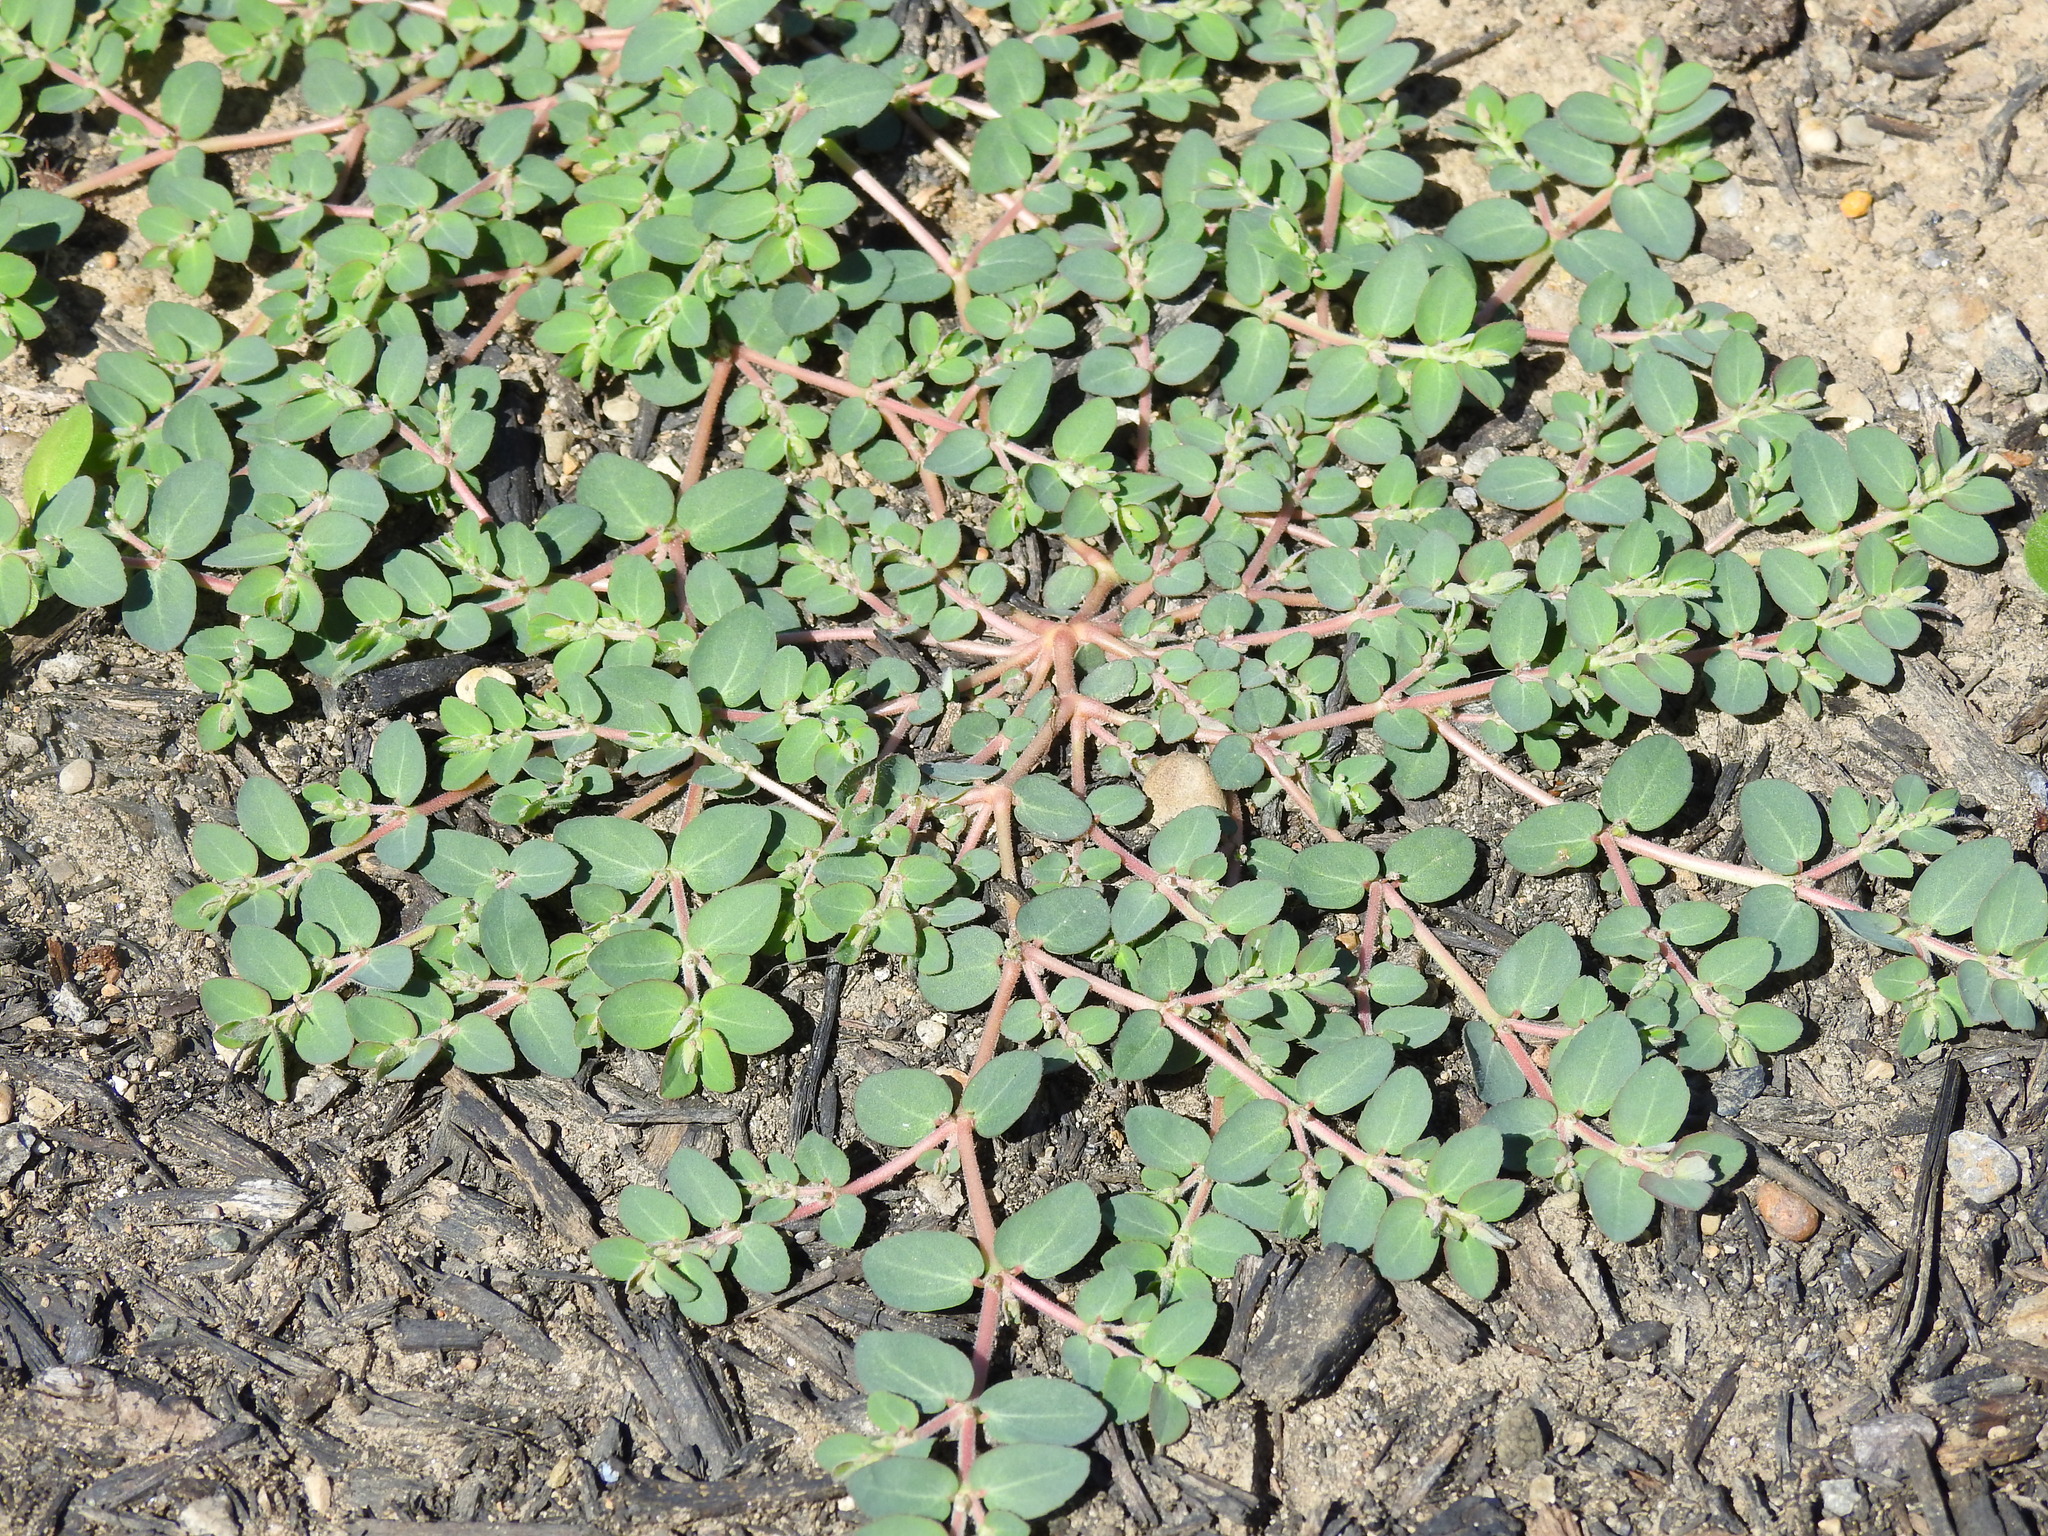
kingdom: Plantae
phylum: Tracheophyta
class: Magnoliopsida
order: Malpighiales
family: Euphorbiaceae
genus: Euphorbia
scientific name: Euphorbia prostrata
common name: Prostrate sandmat
